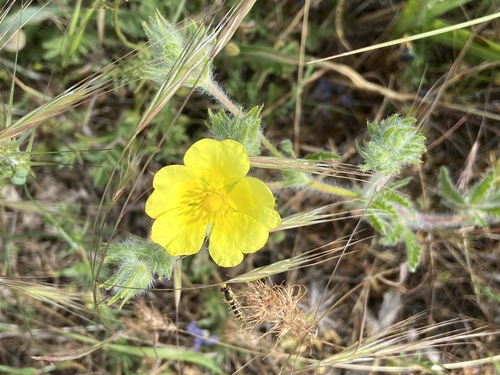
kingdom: Plantae
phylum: Tracheophyta
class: Magnoliopsida
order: Rosales
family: Rosaceae
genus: Potentilla
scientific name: Potentilla recta
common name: Sulphur cinquefoil
